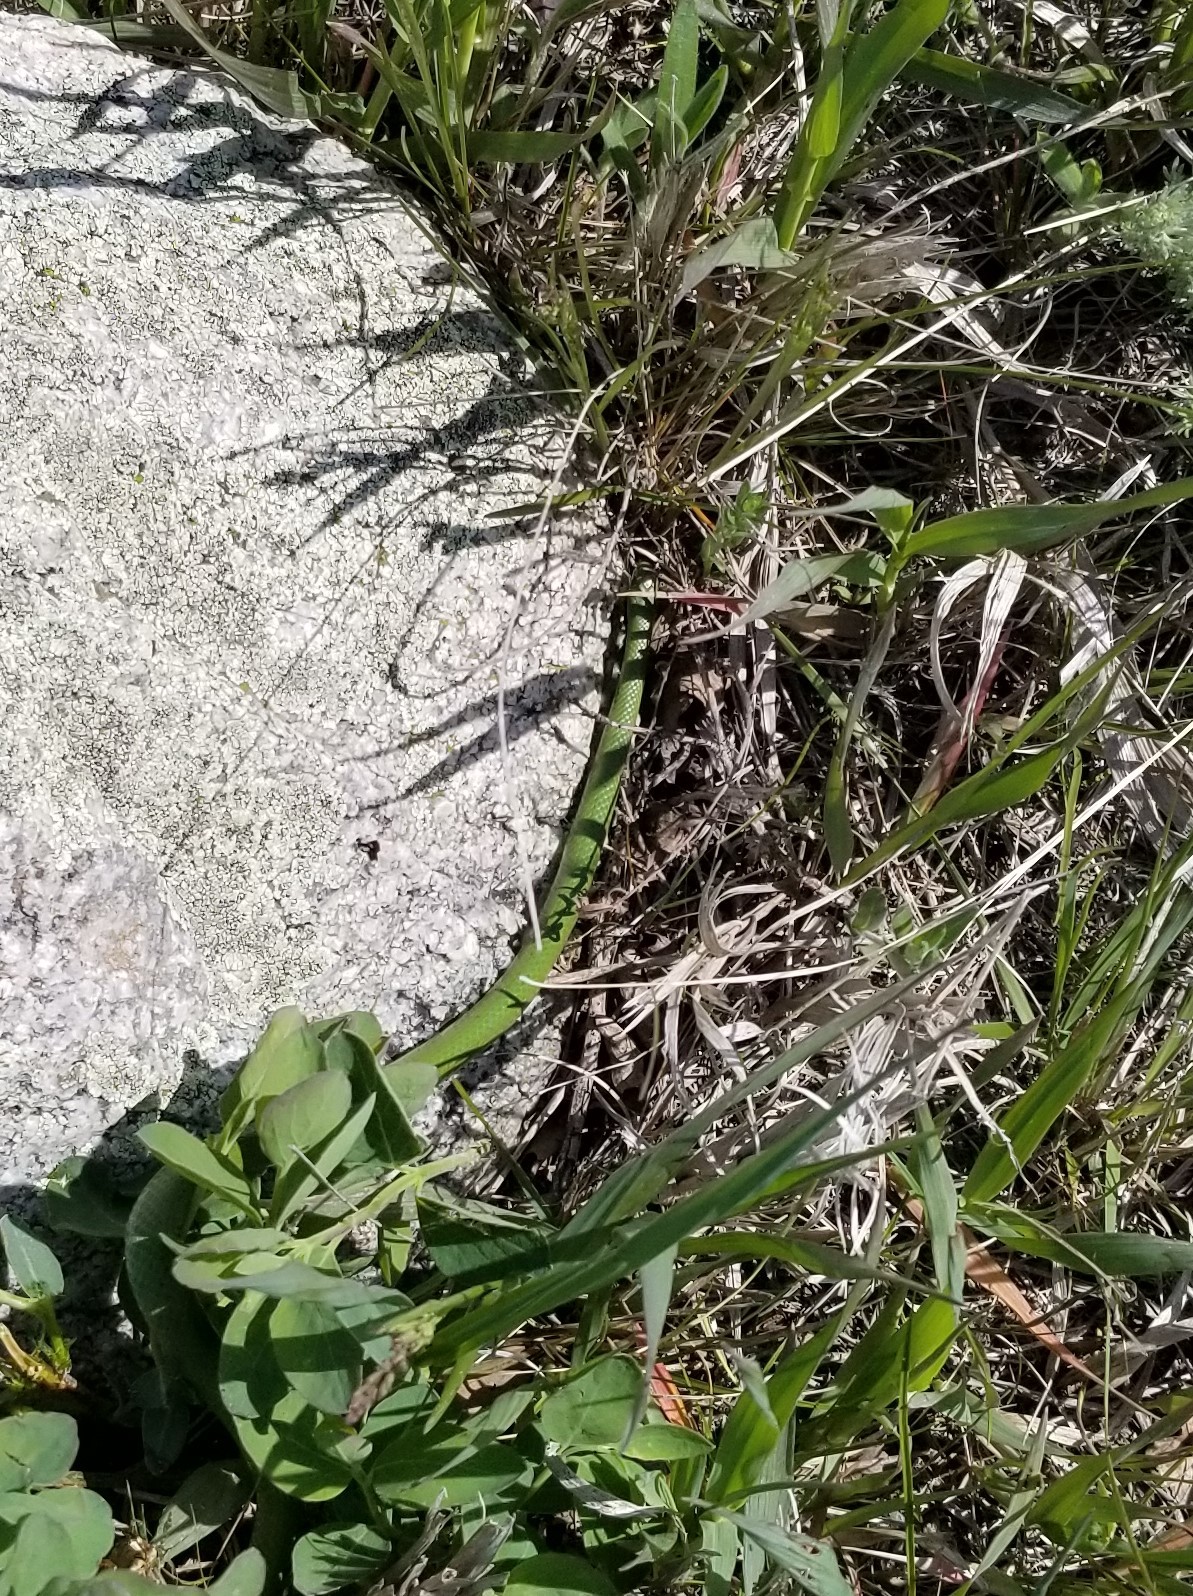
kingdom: Animalia
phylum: Chordata
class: Squamata
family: Colubridae
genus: Opheodrys
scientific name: Opheodrys vernalis
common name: Smooth green snake
